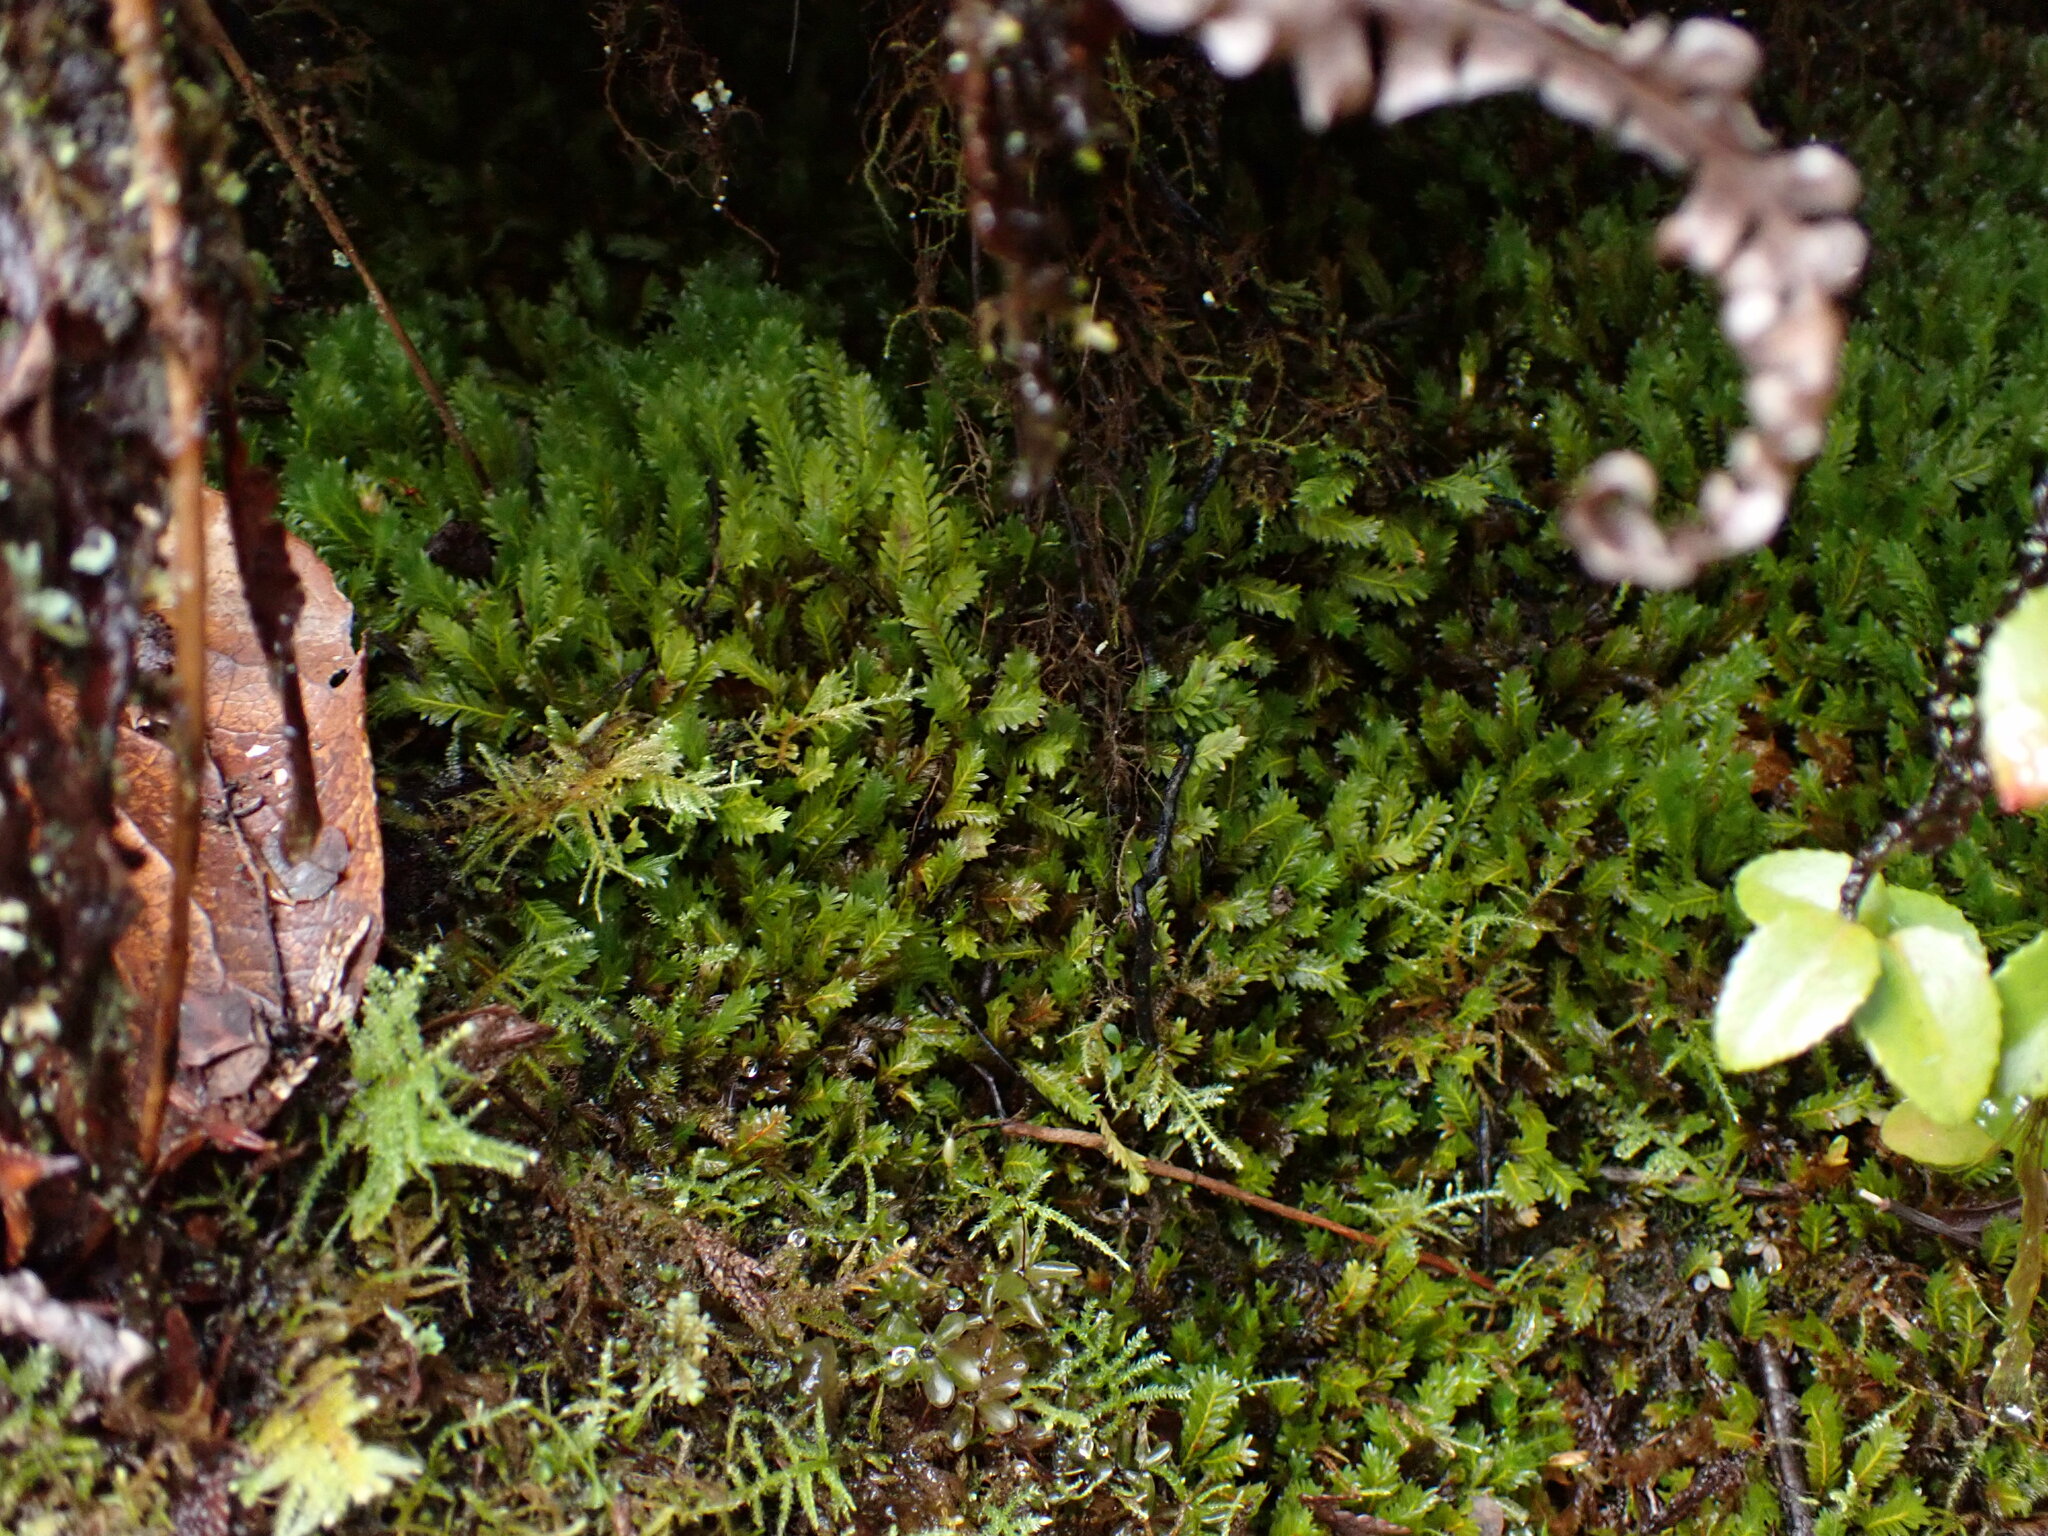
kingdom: Plantae
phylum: Bryophyta
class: Bryopsida
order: Dicranales
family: Fissidentaceae
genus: Fissidens
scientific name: Fissidens adianthoides
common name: Maidenhair pocket moss
